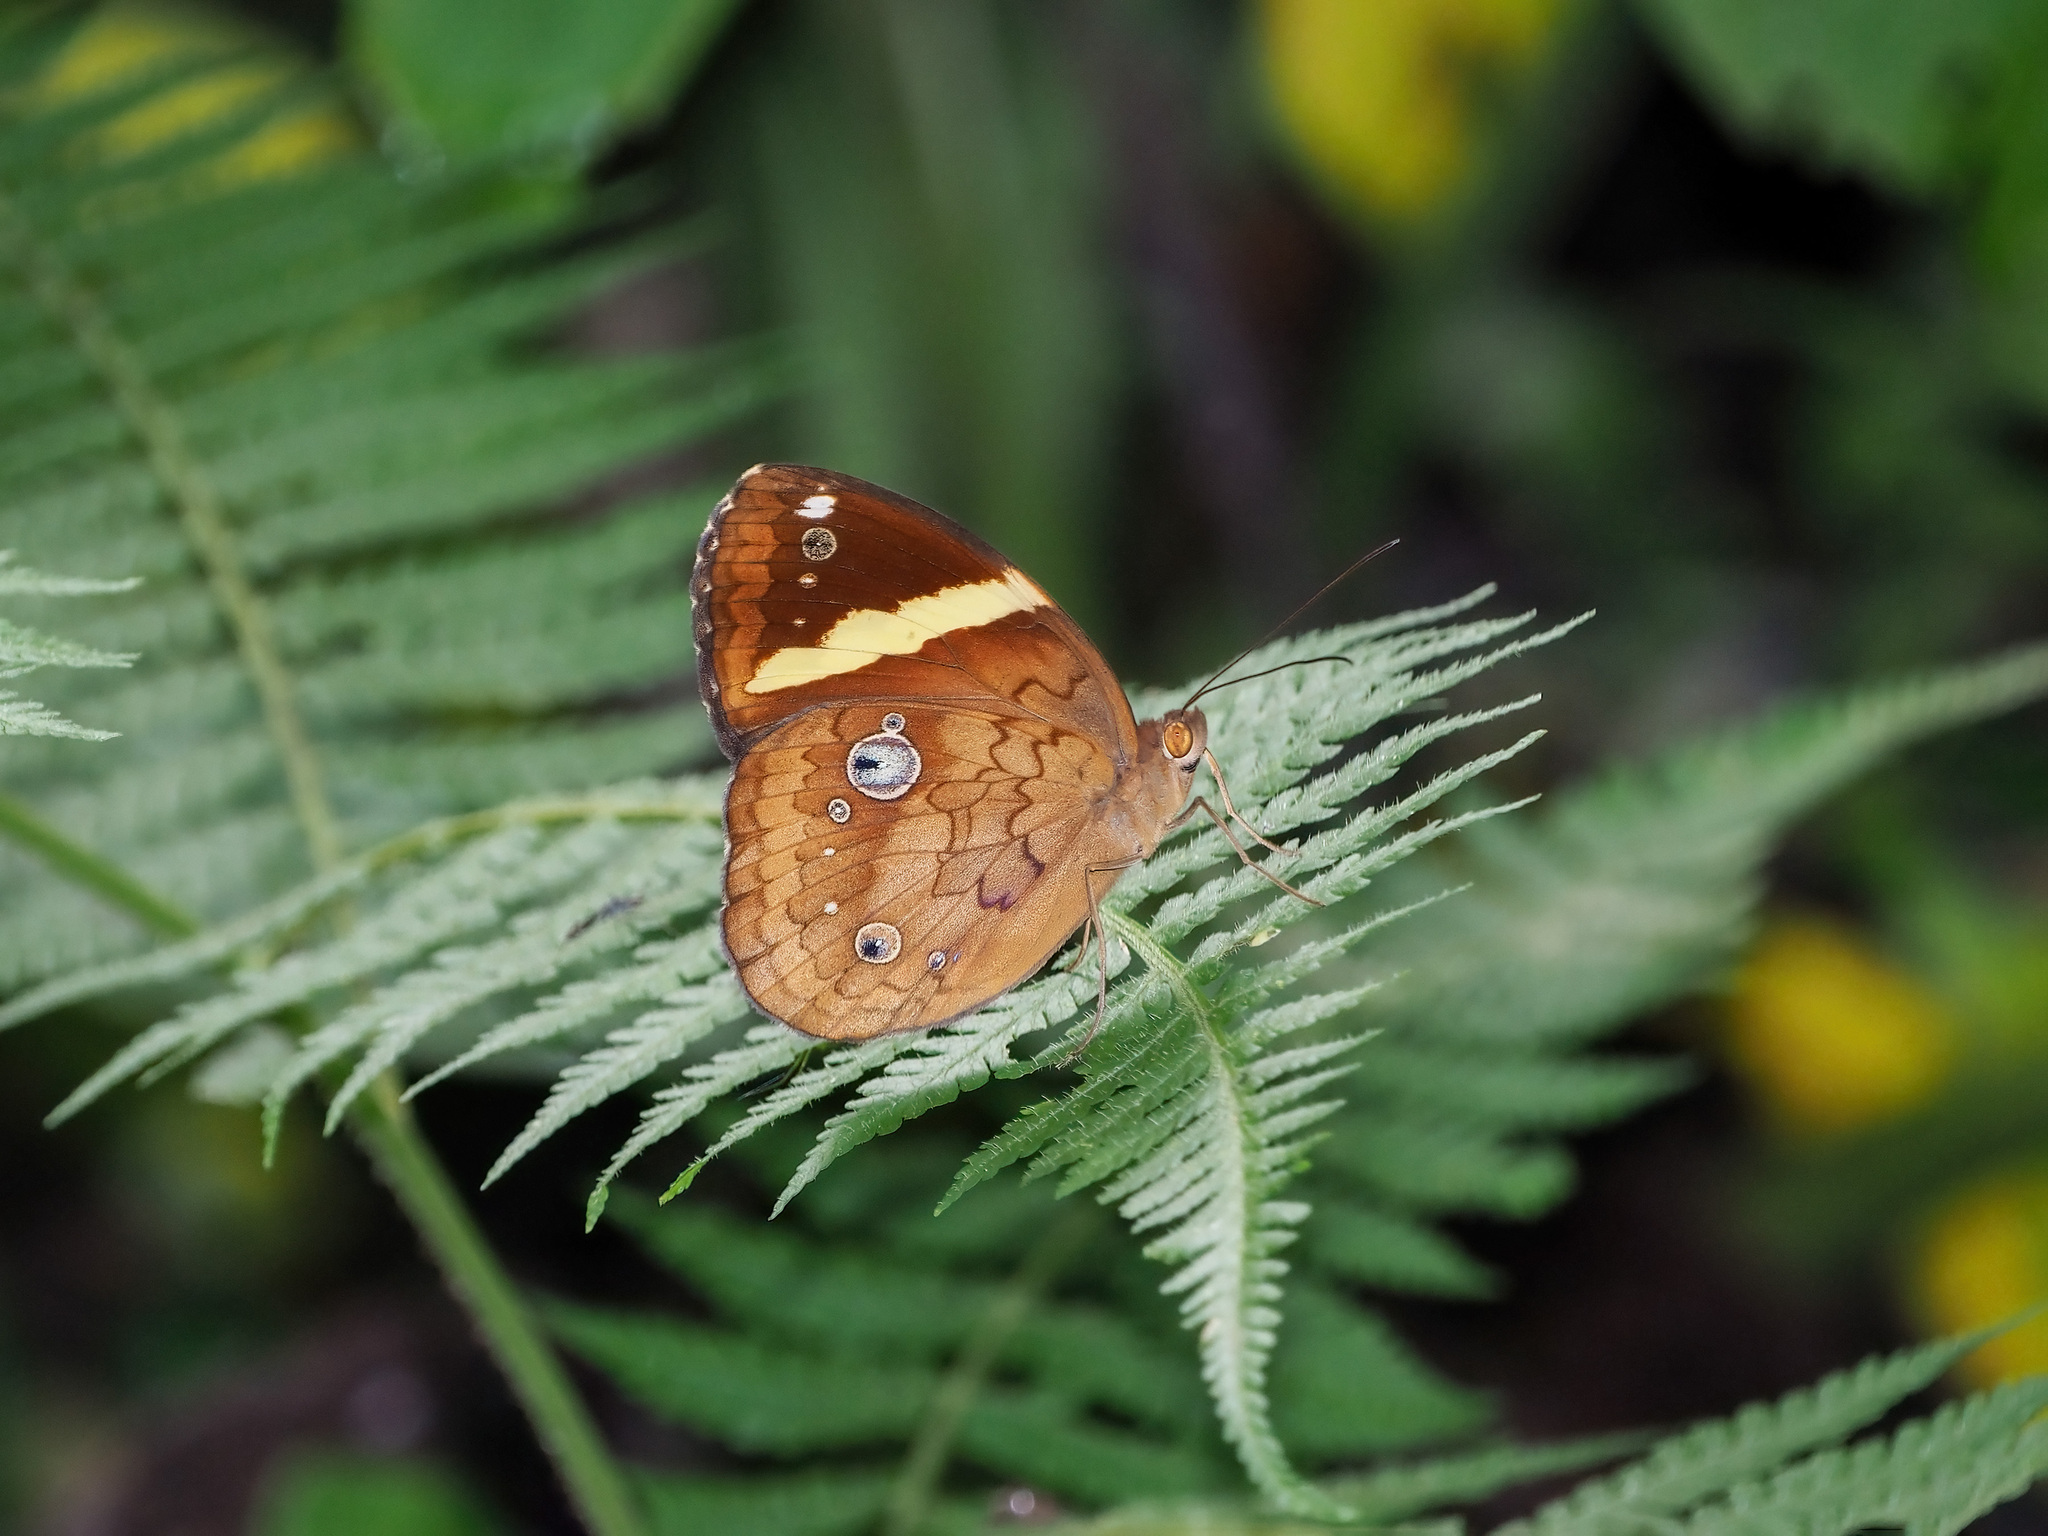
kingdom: Animalia
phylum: Arthropoda
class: Insecta
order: Lepidoptera
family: Nymphalidae
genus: Xanthotaenia
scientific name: Xanthotaenia busiris
